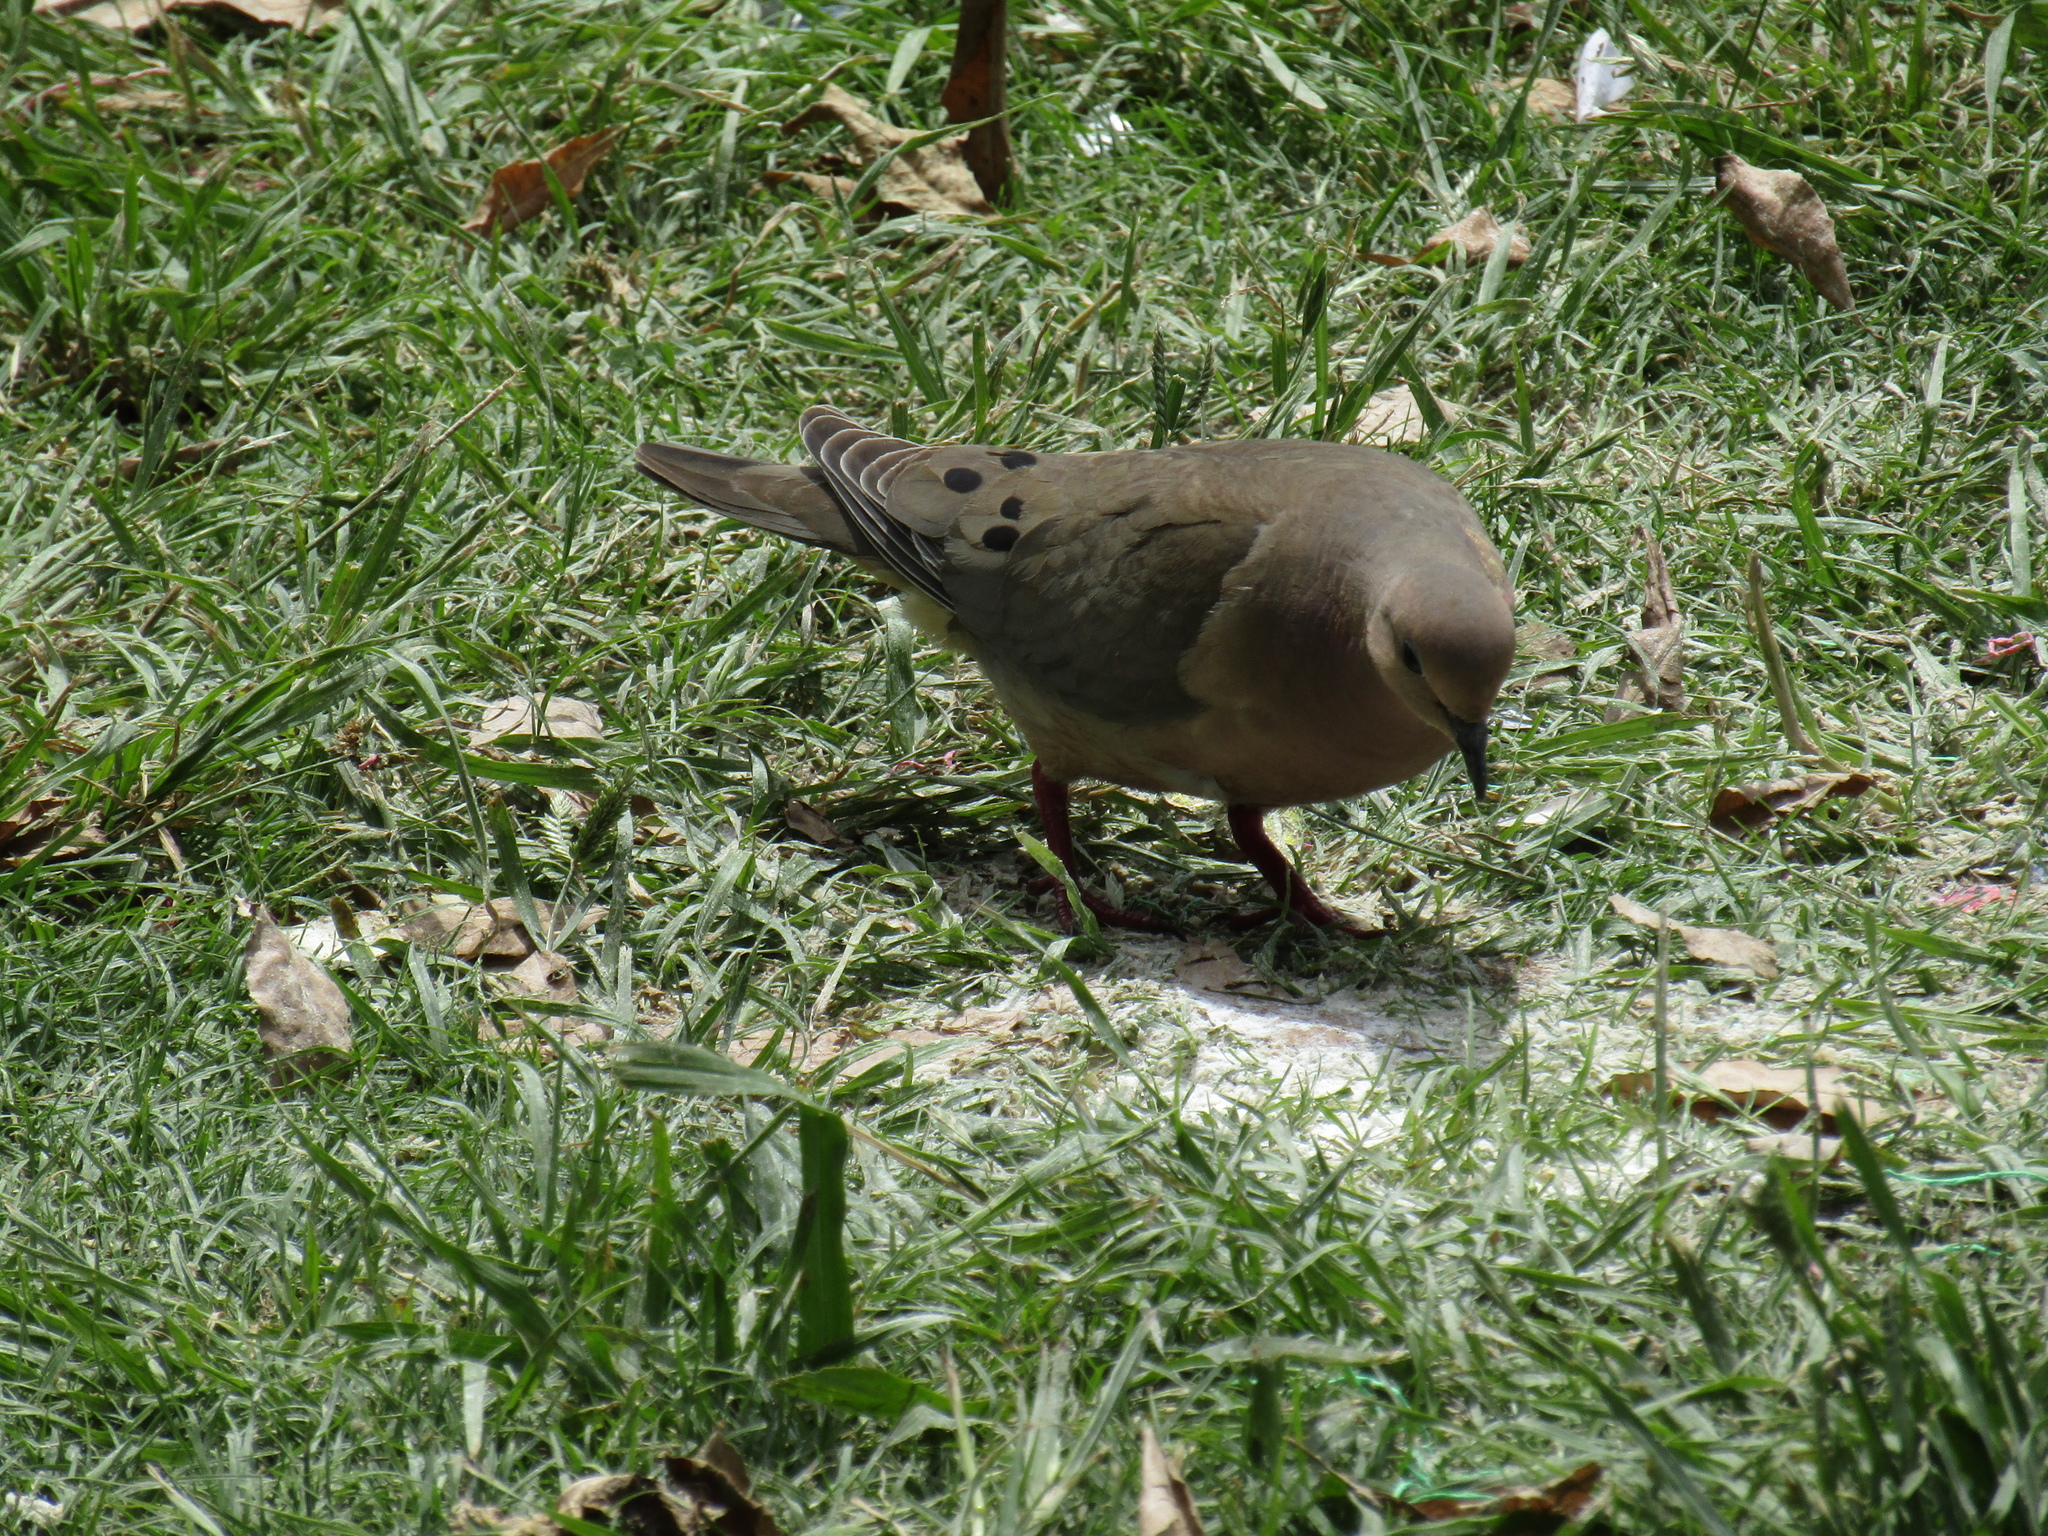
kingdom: Animalia
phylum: Chordata
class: Aves
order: Columbiformes
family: Columbidae
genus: Zenaida
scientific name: Zenaida auriculata
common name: Eared dove
